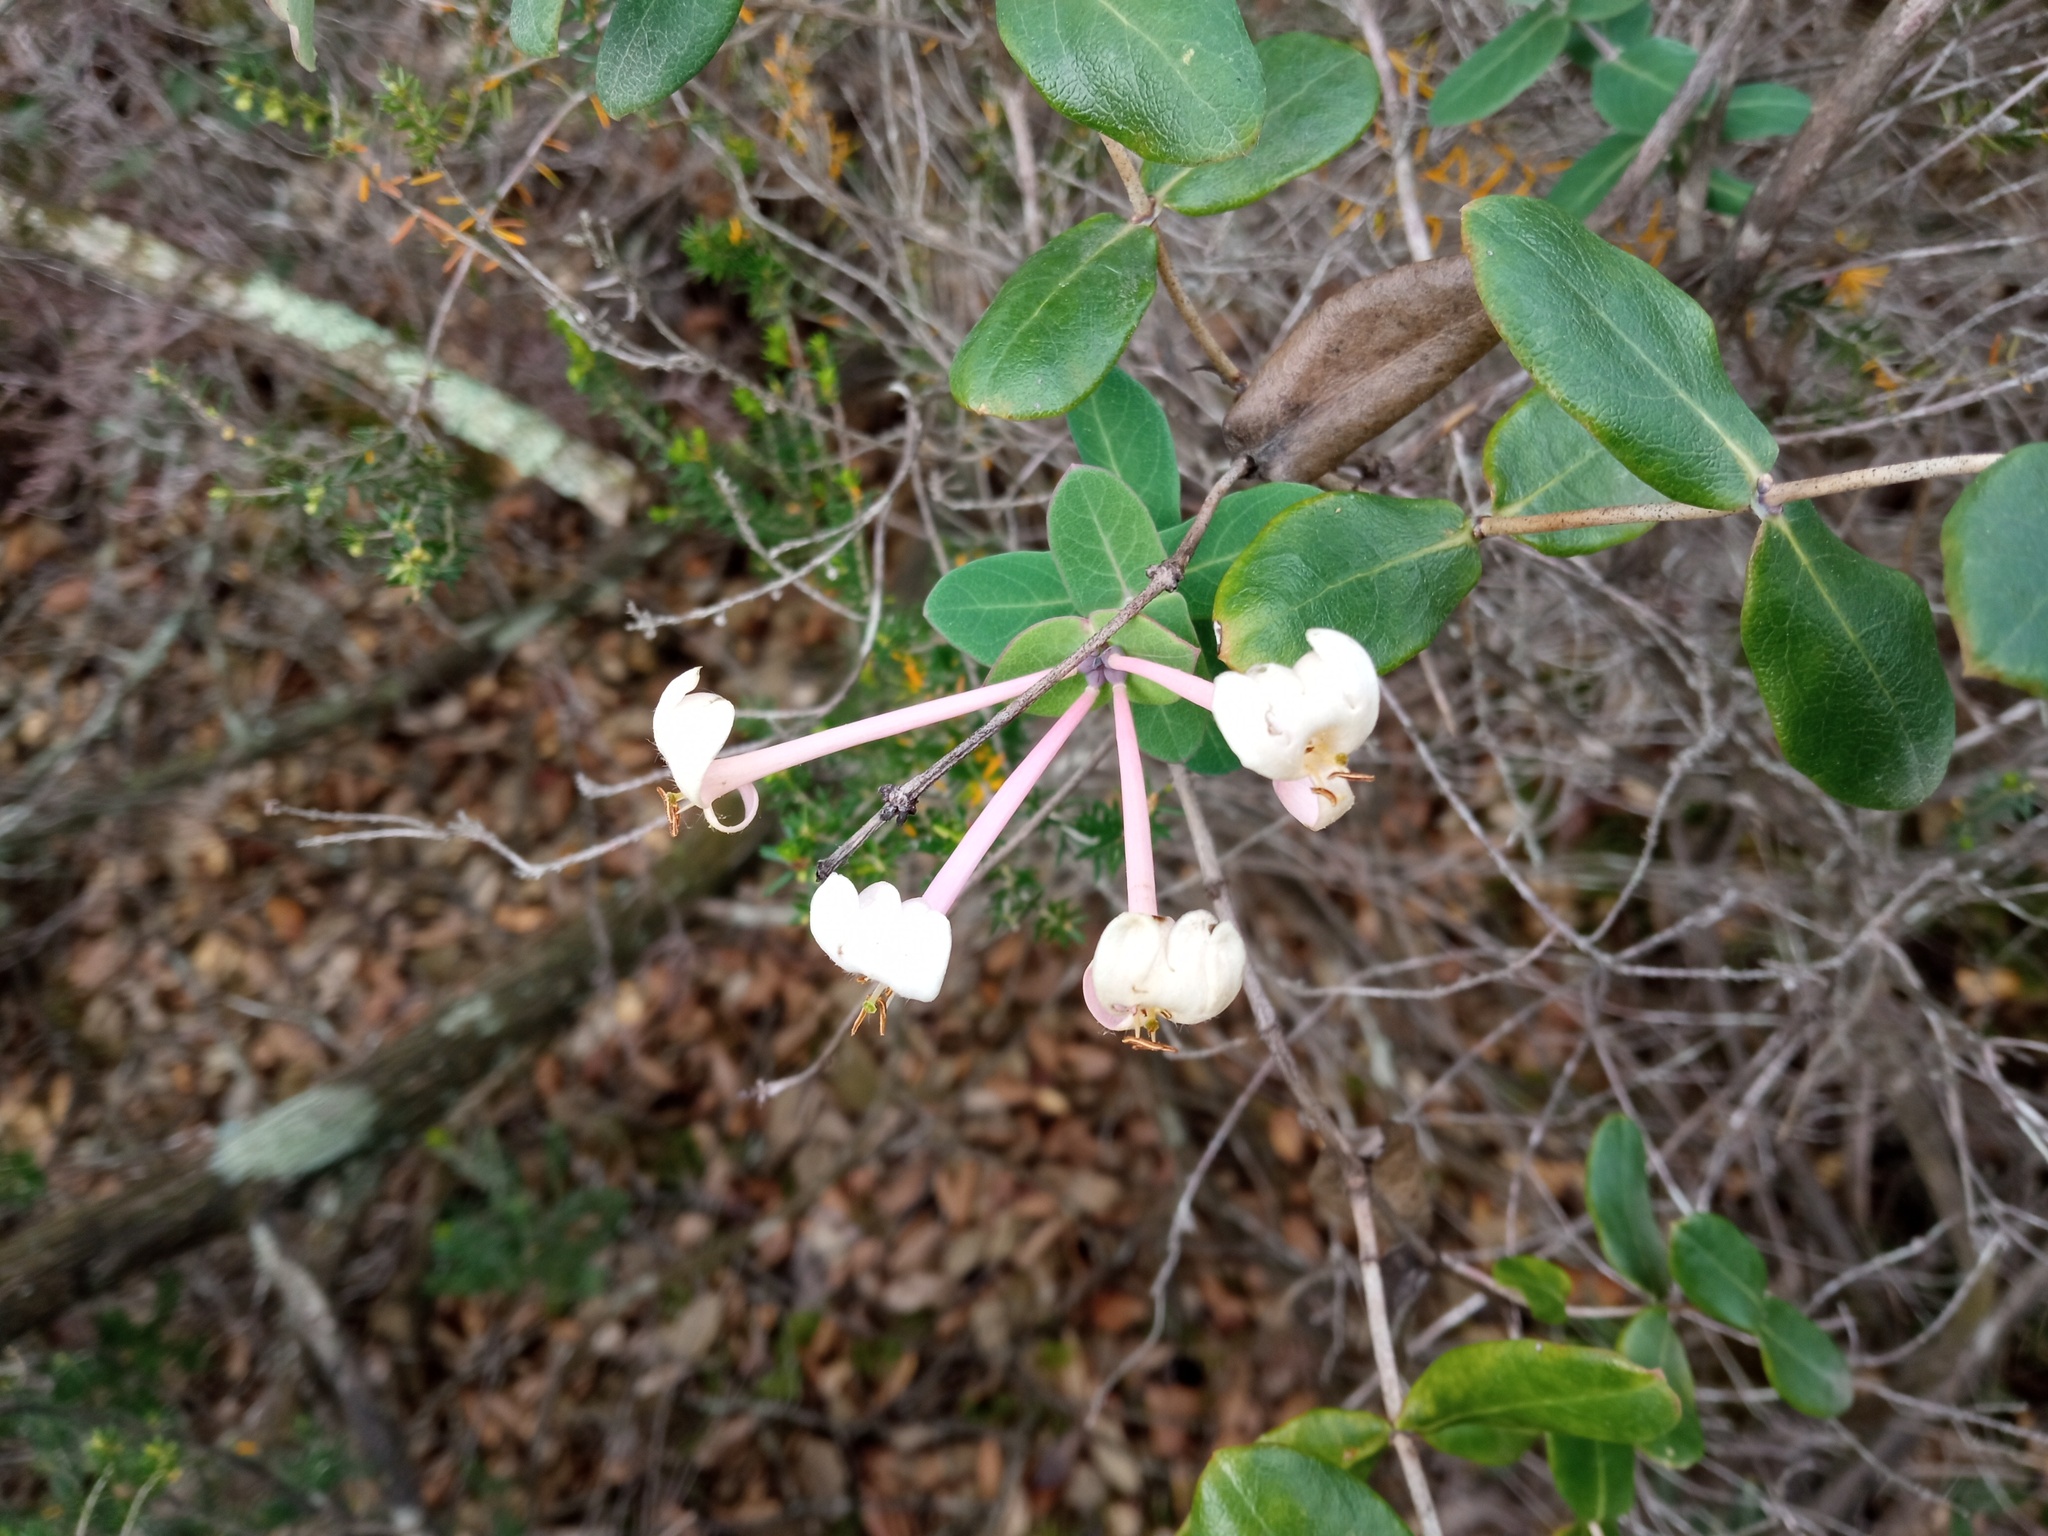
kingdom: Plantae
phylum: Tracheophyta
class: Magnoliopsida
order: Dipsacales
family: Caprifoliaceae
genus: Lonicera
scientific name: Lonicera implexa
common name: Minorca honeysuckle
